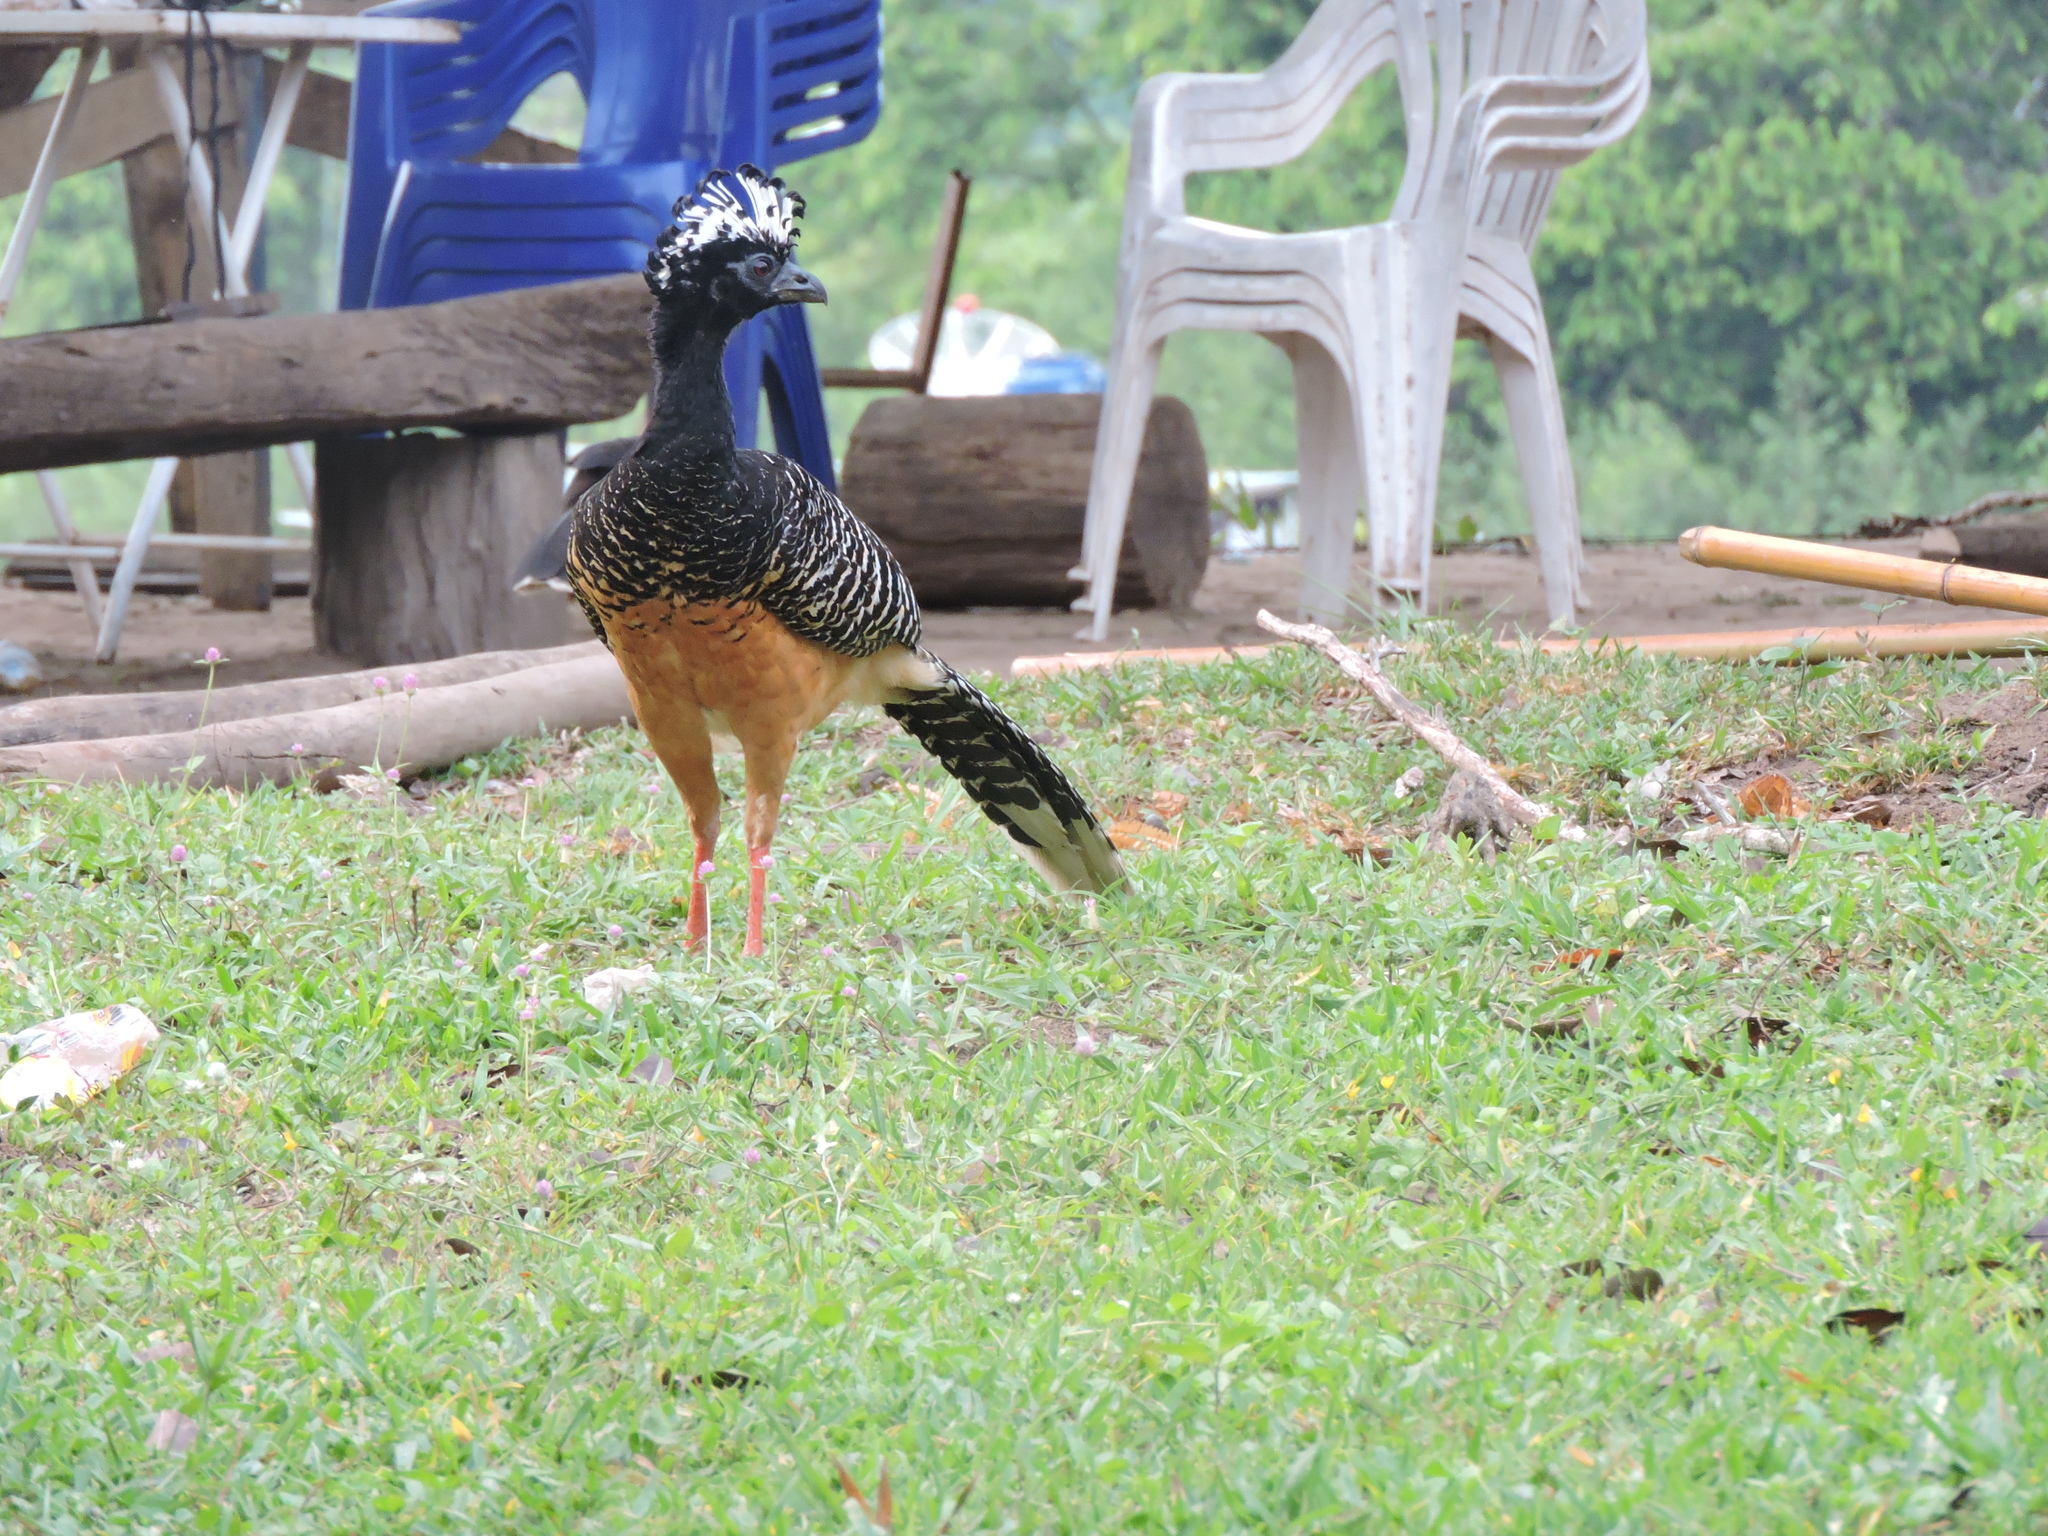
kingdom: Animalia
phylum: Chordata
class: Aves
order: Galliformes
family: Cracidae
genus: Crax
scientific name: Crax fasciolata
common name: Bare-faced curassow
